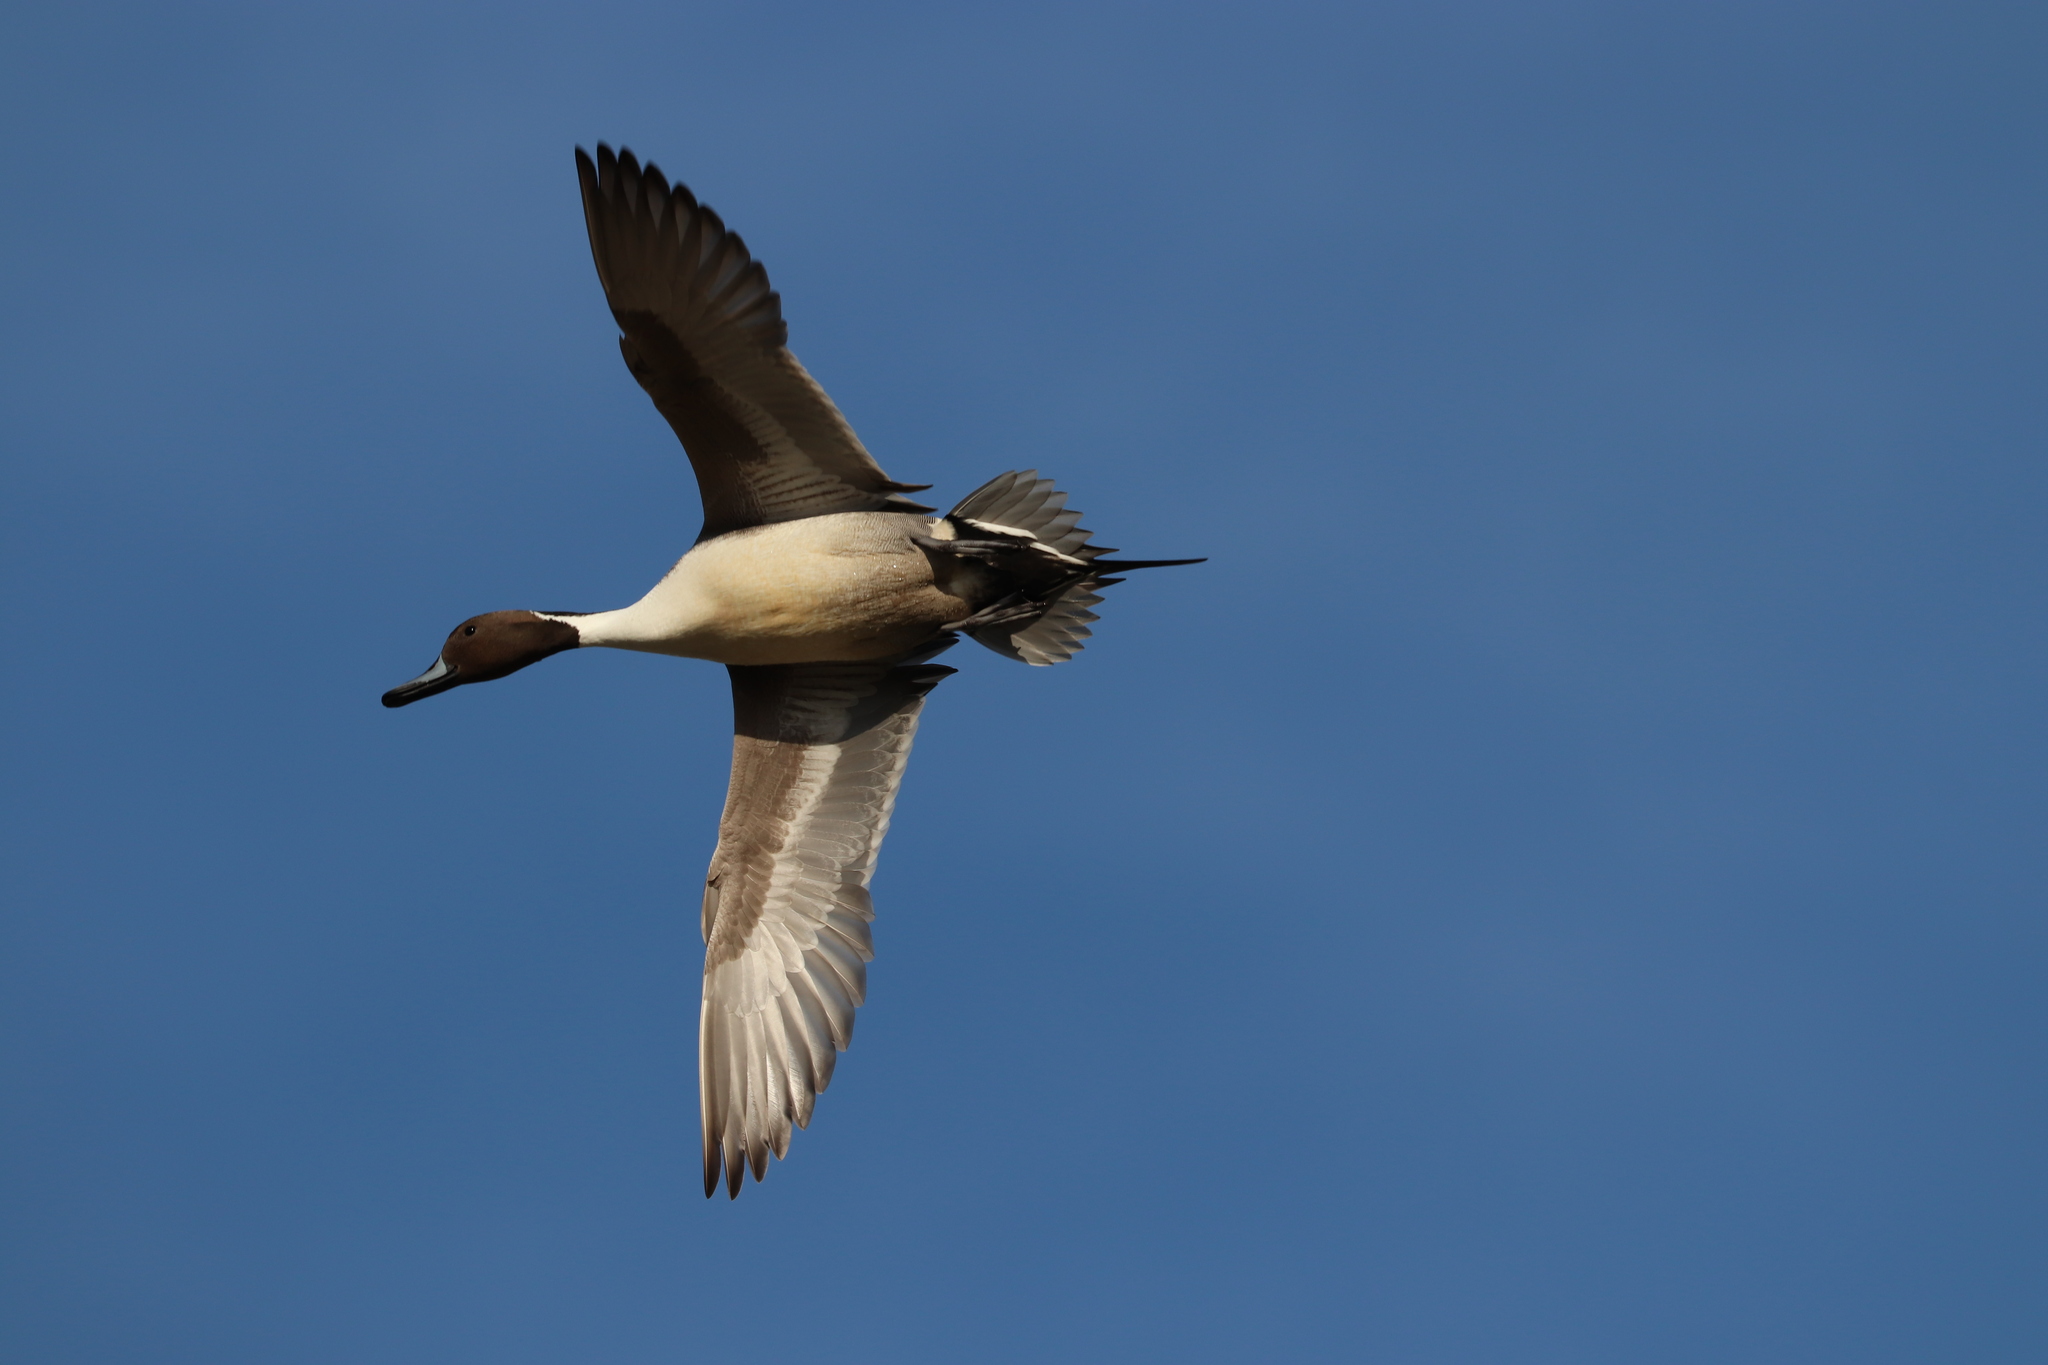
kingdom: Animalia
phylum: Chordata
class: Aves
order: Anseriformes
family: Anatidae
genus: Anas
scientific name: Anas acuta
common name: Northern pintail
